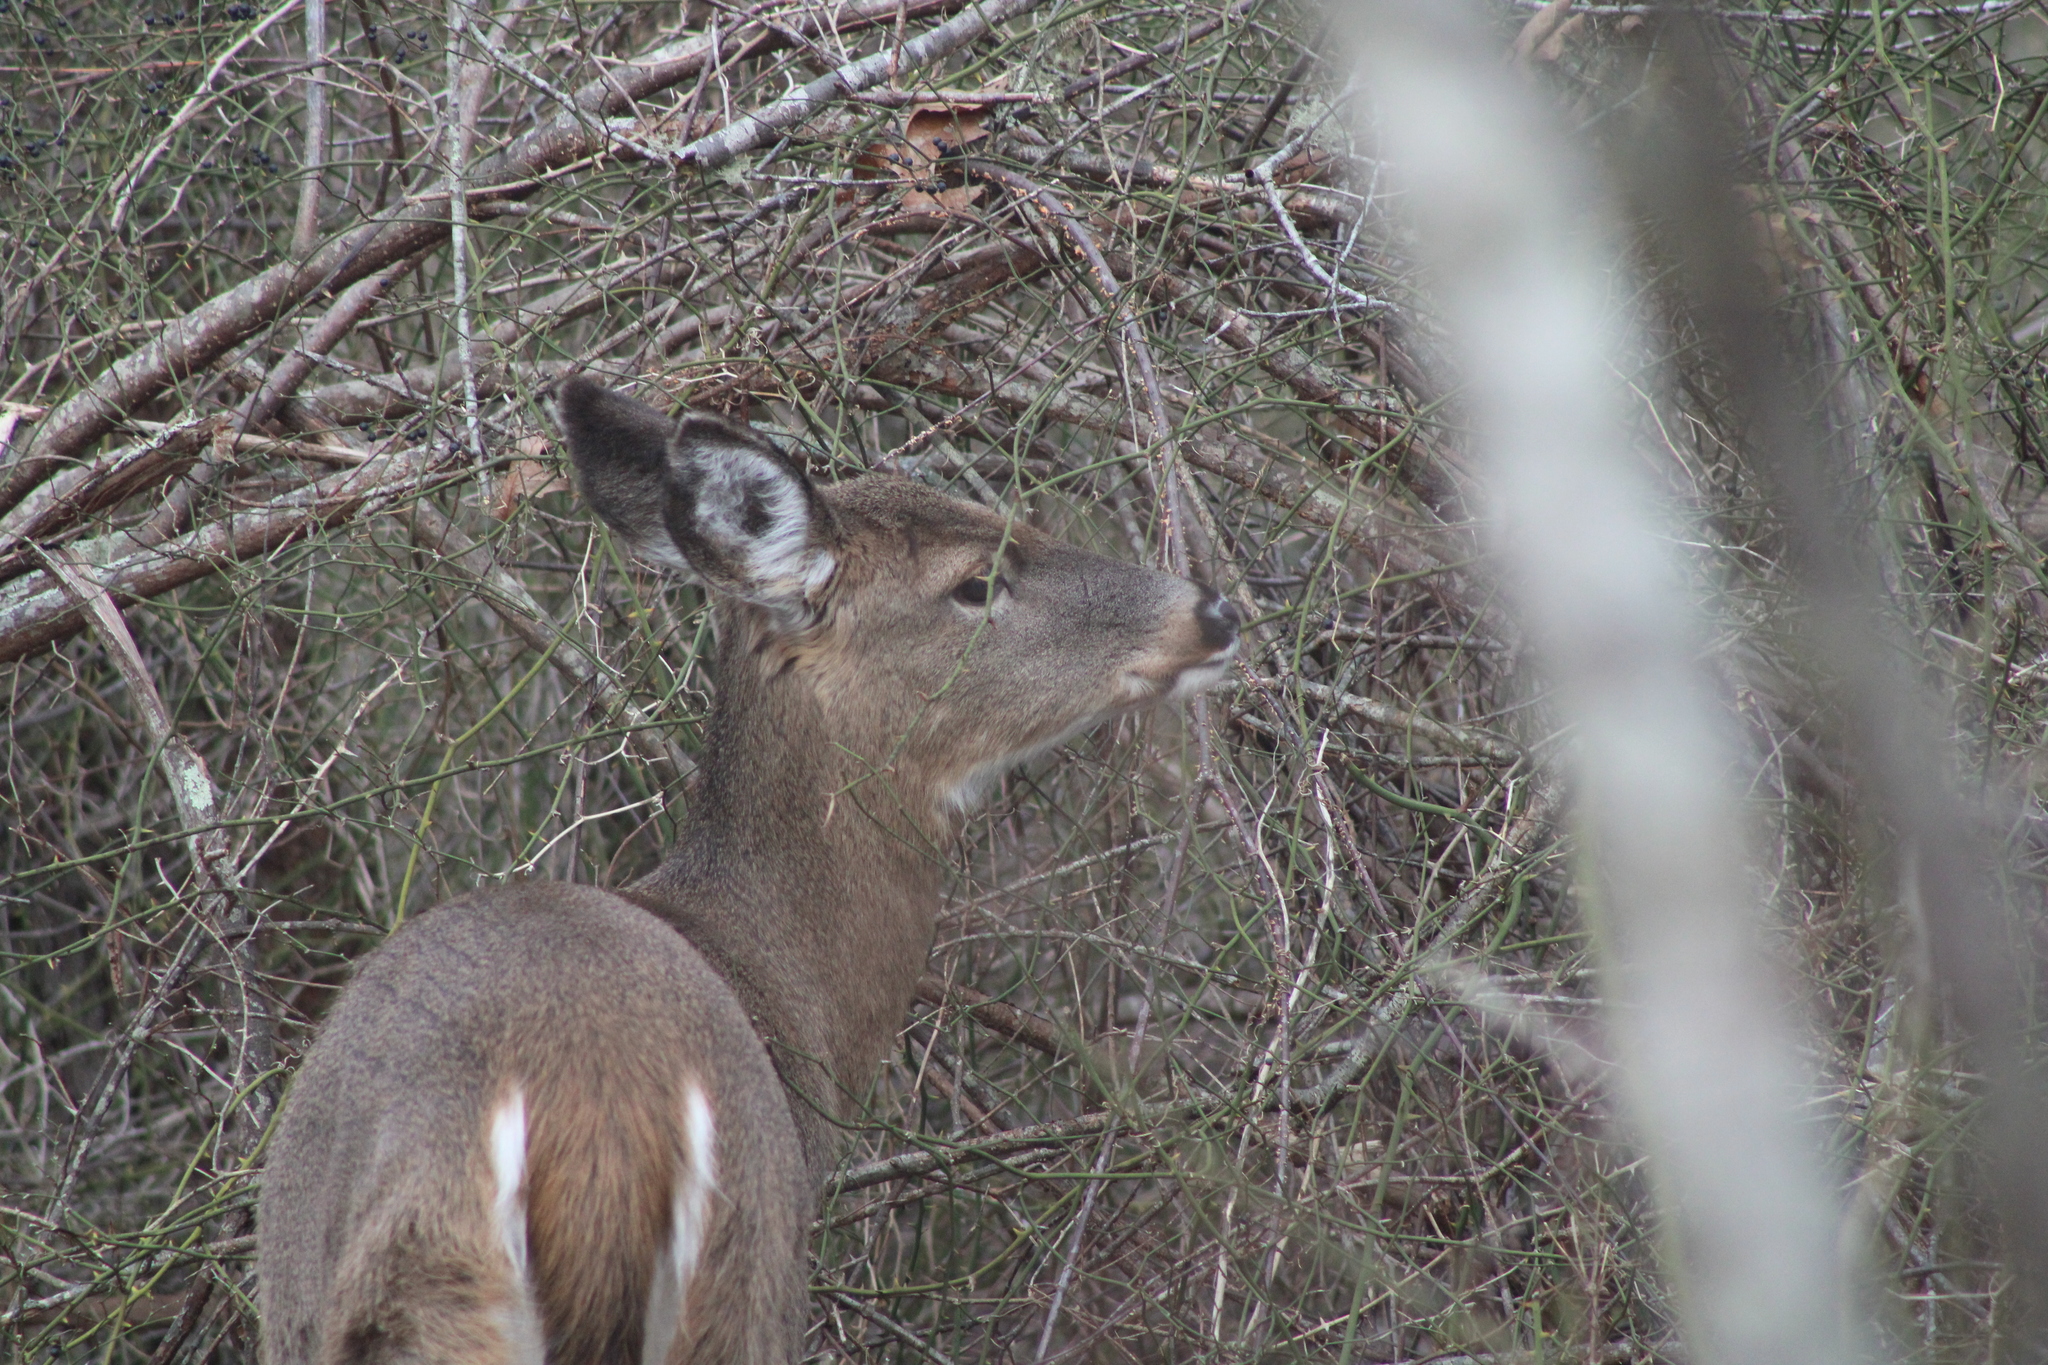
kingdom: Animalia
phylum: Chordata
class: Mammalia
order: Artiodactyla
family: Cervidae
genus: Odocoileus
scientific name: Odocoileus virginianus
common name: White-tailed deer
